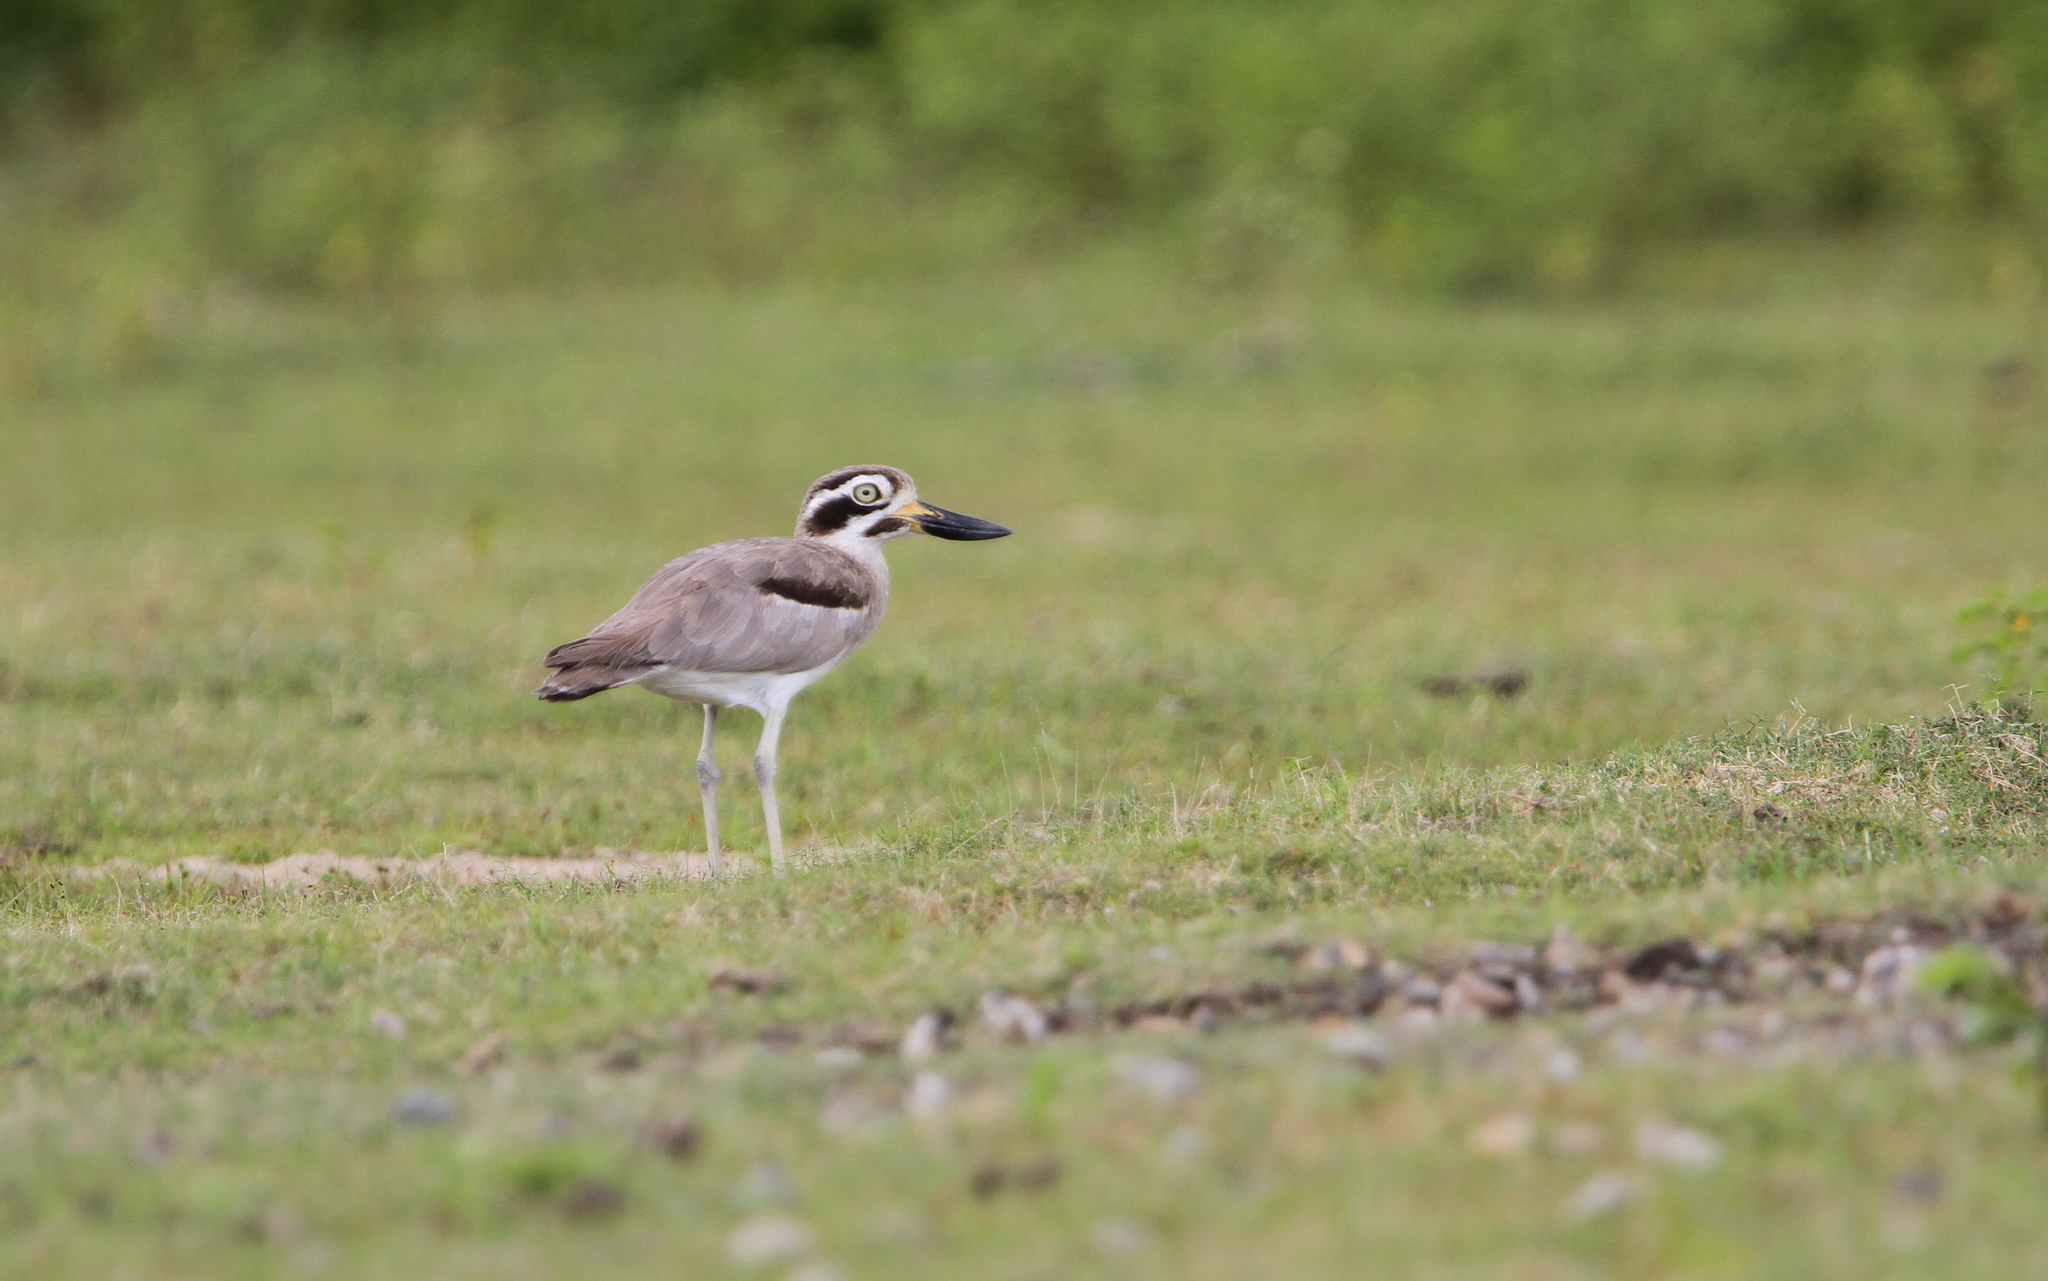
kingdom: Animalia
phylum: Chordata
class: Aves
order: Charadriiformes
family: Burhinidae
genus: Esacus
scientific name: Esacus recurvirostris
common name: Great stone-curlew
